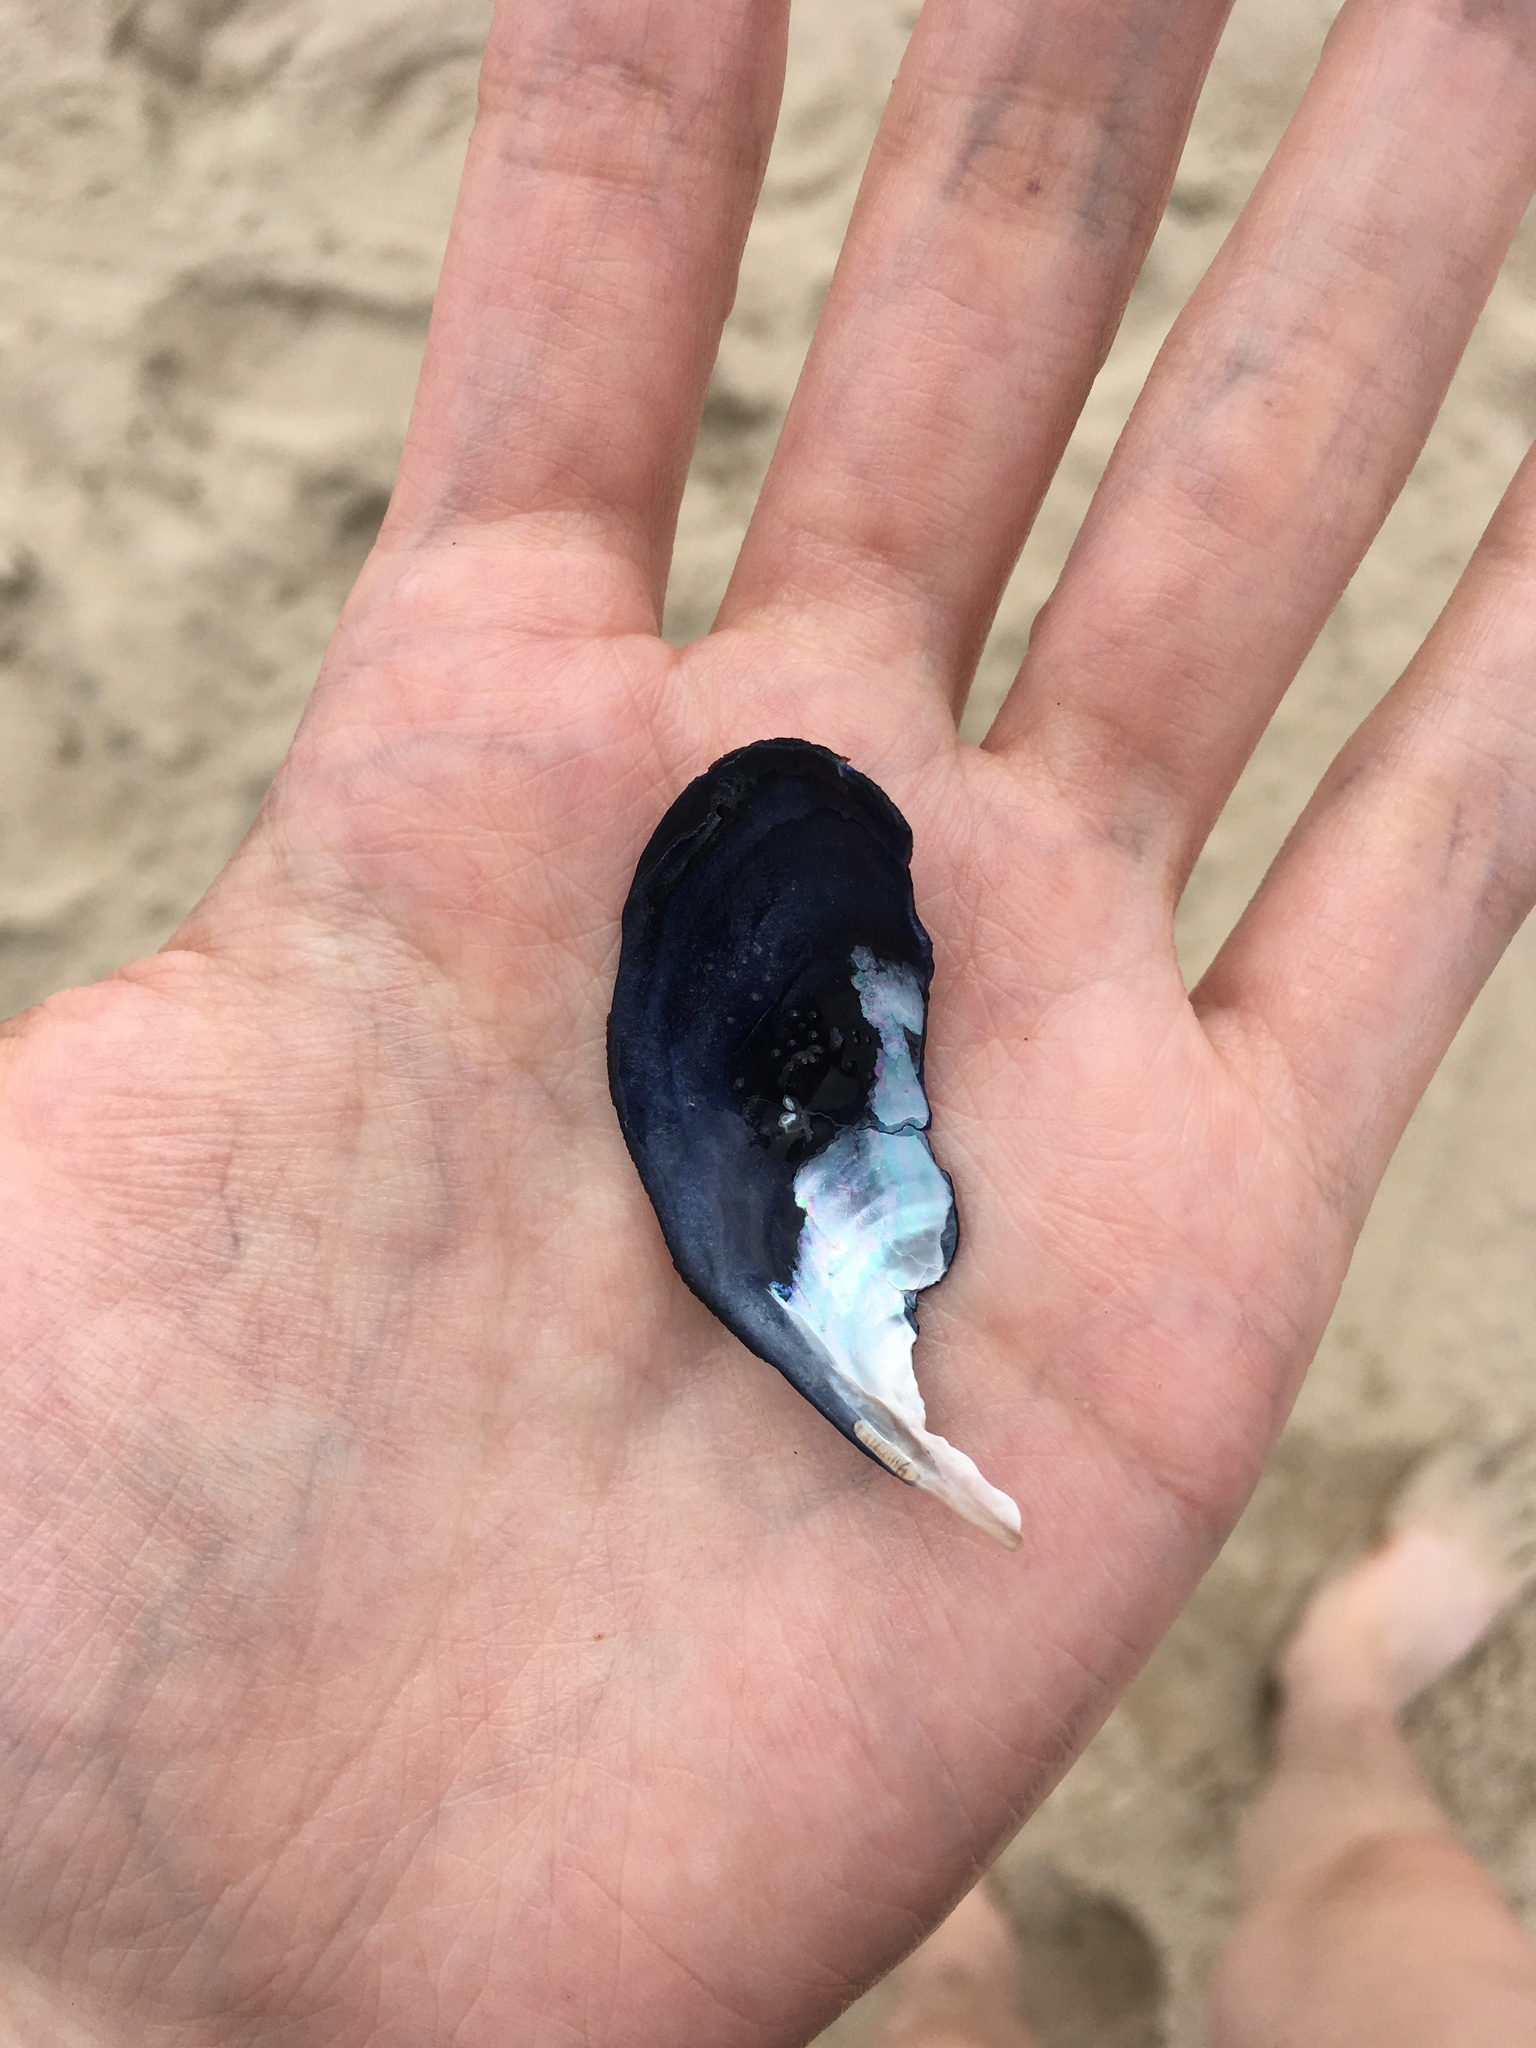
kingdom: Animalia
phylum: Mollusca
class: Bivalvia
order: Mytilida
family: Mytilidae
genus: Mytilus
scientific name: Mytilus edulis
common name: Blue mussel
